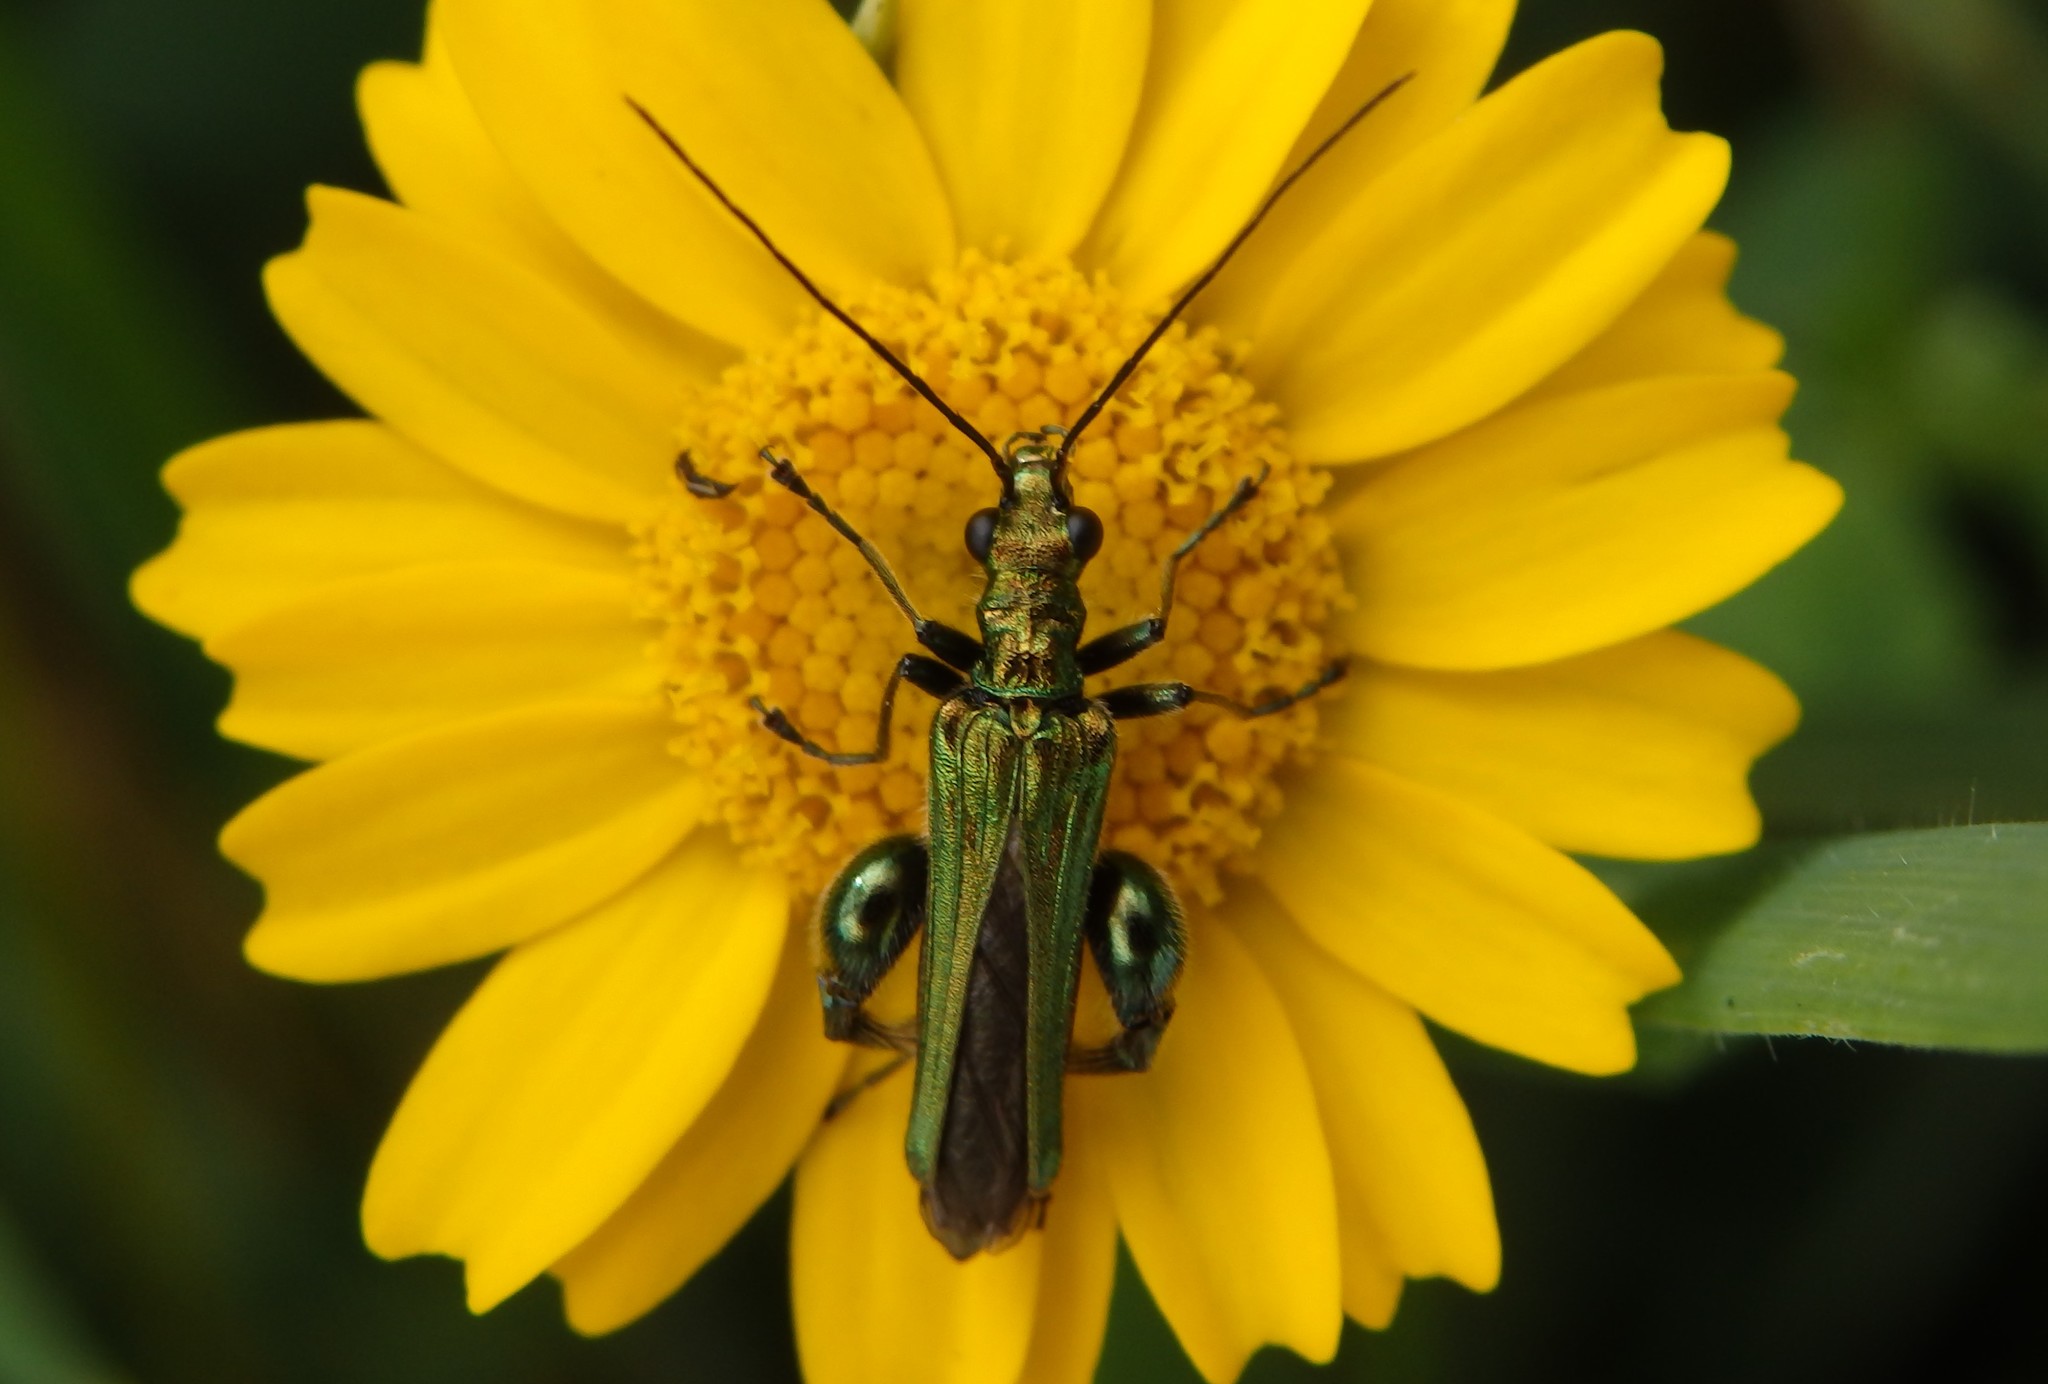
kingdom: Animalia
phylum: Arthropoda
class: Insecta
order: Coleoptera
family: Oedemeridae
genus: Oedemera
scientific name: Oedemera nobilis
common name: Swollen-thighed beetle
